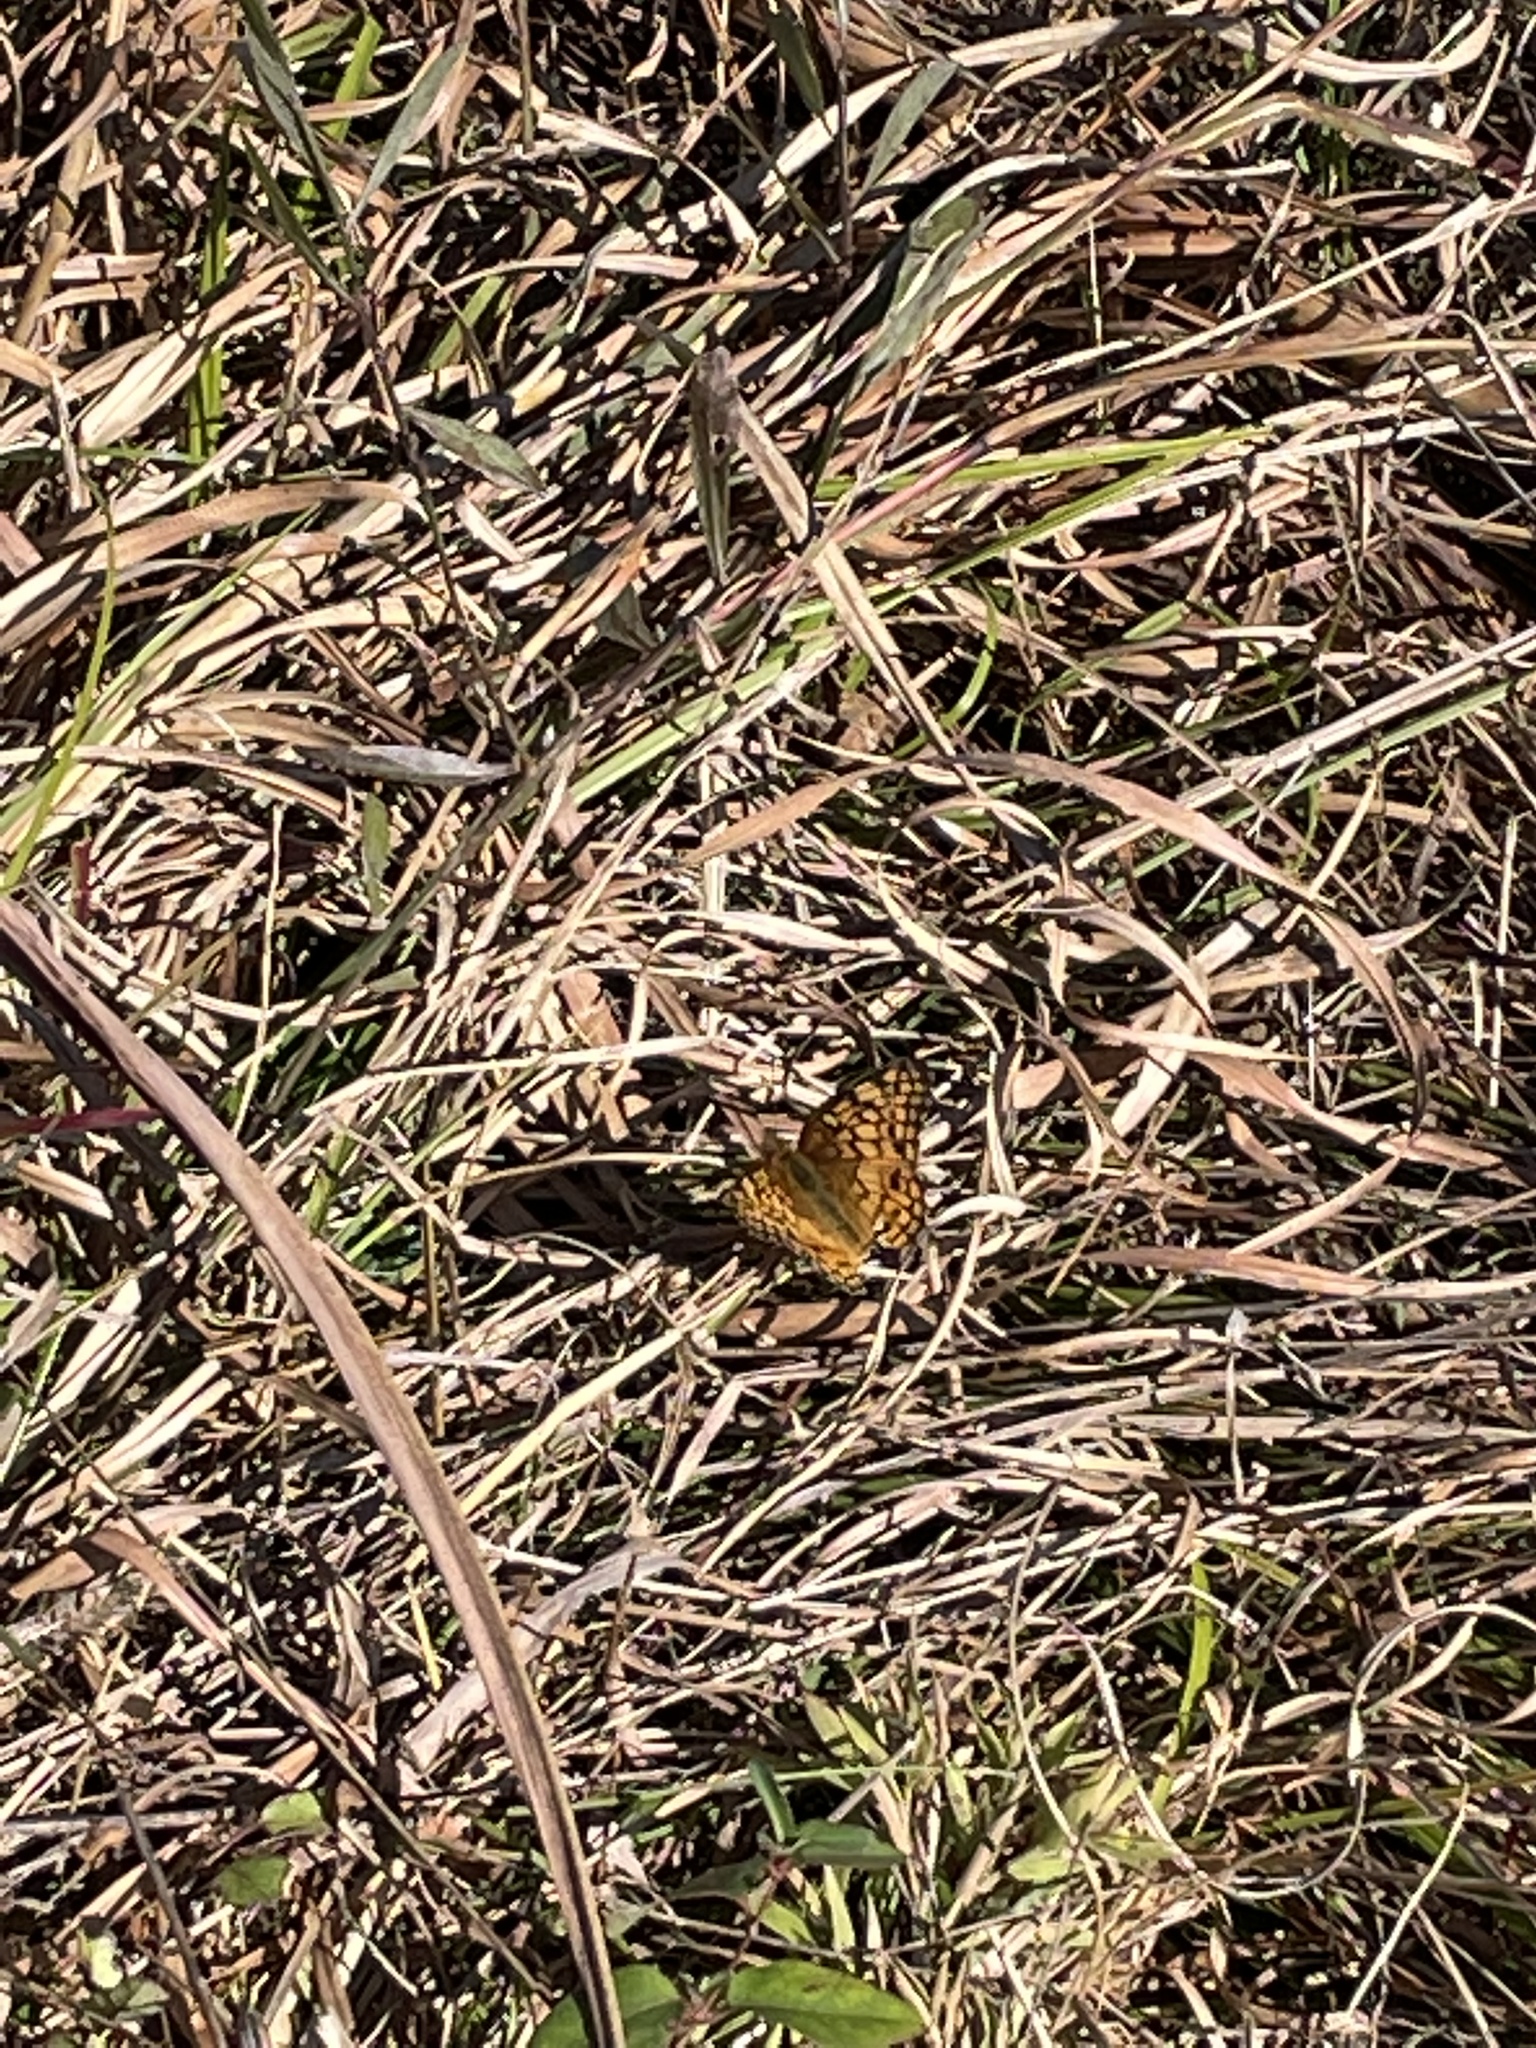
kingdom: Animalia
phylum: Arthropoda
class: Insecta
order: Lepidoptera
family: Nymphalidae
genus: Euptoieta
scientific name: Euptoieta claudia
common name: Variegated fritillary
